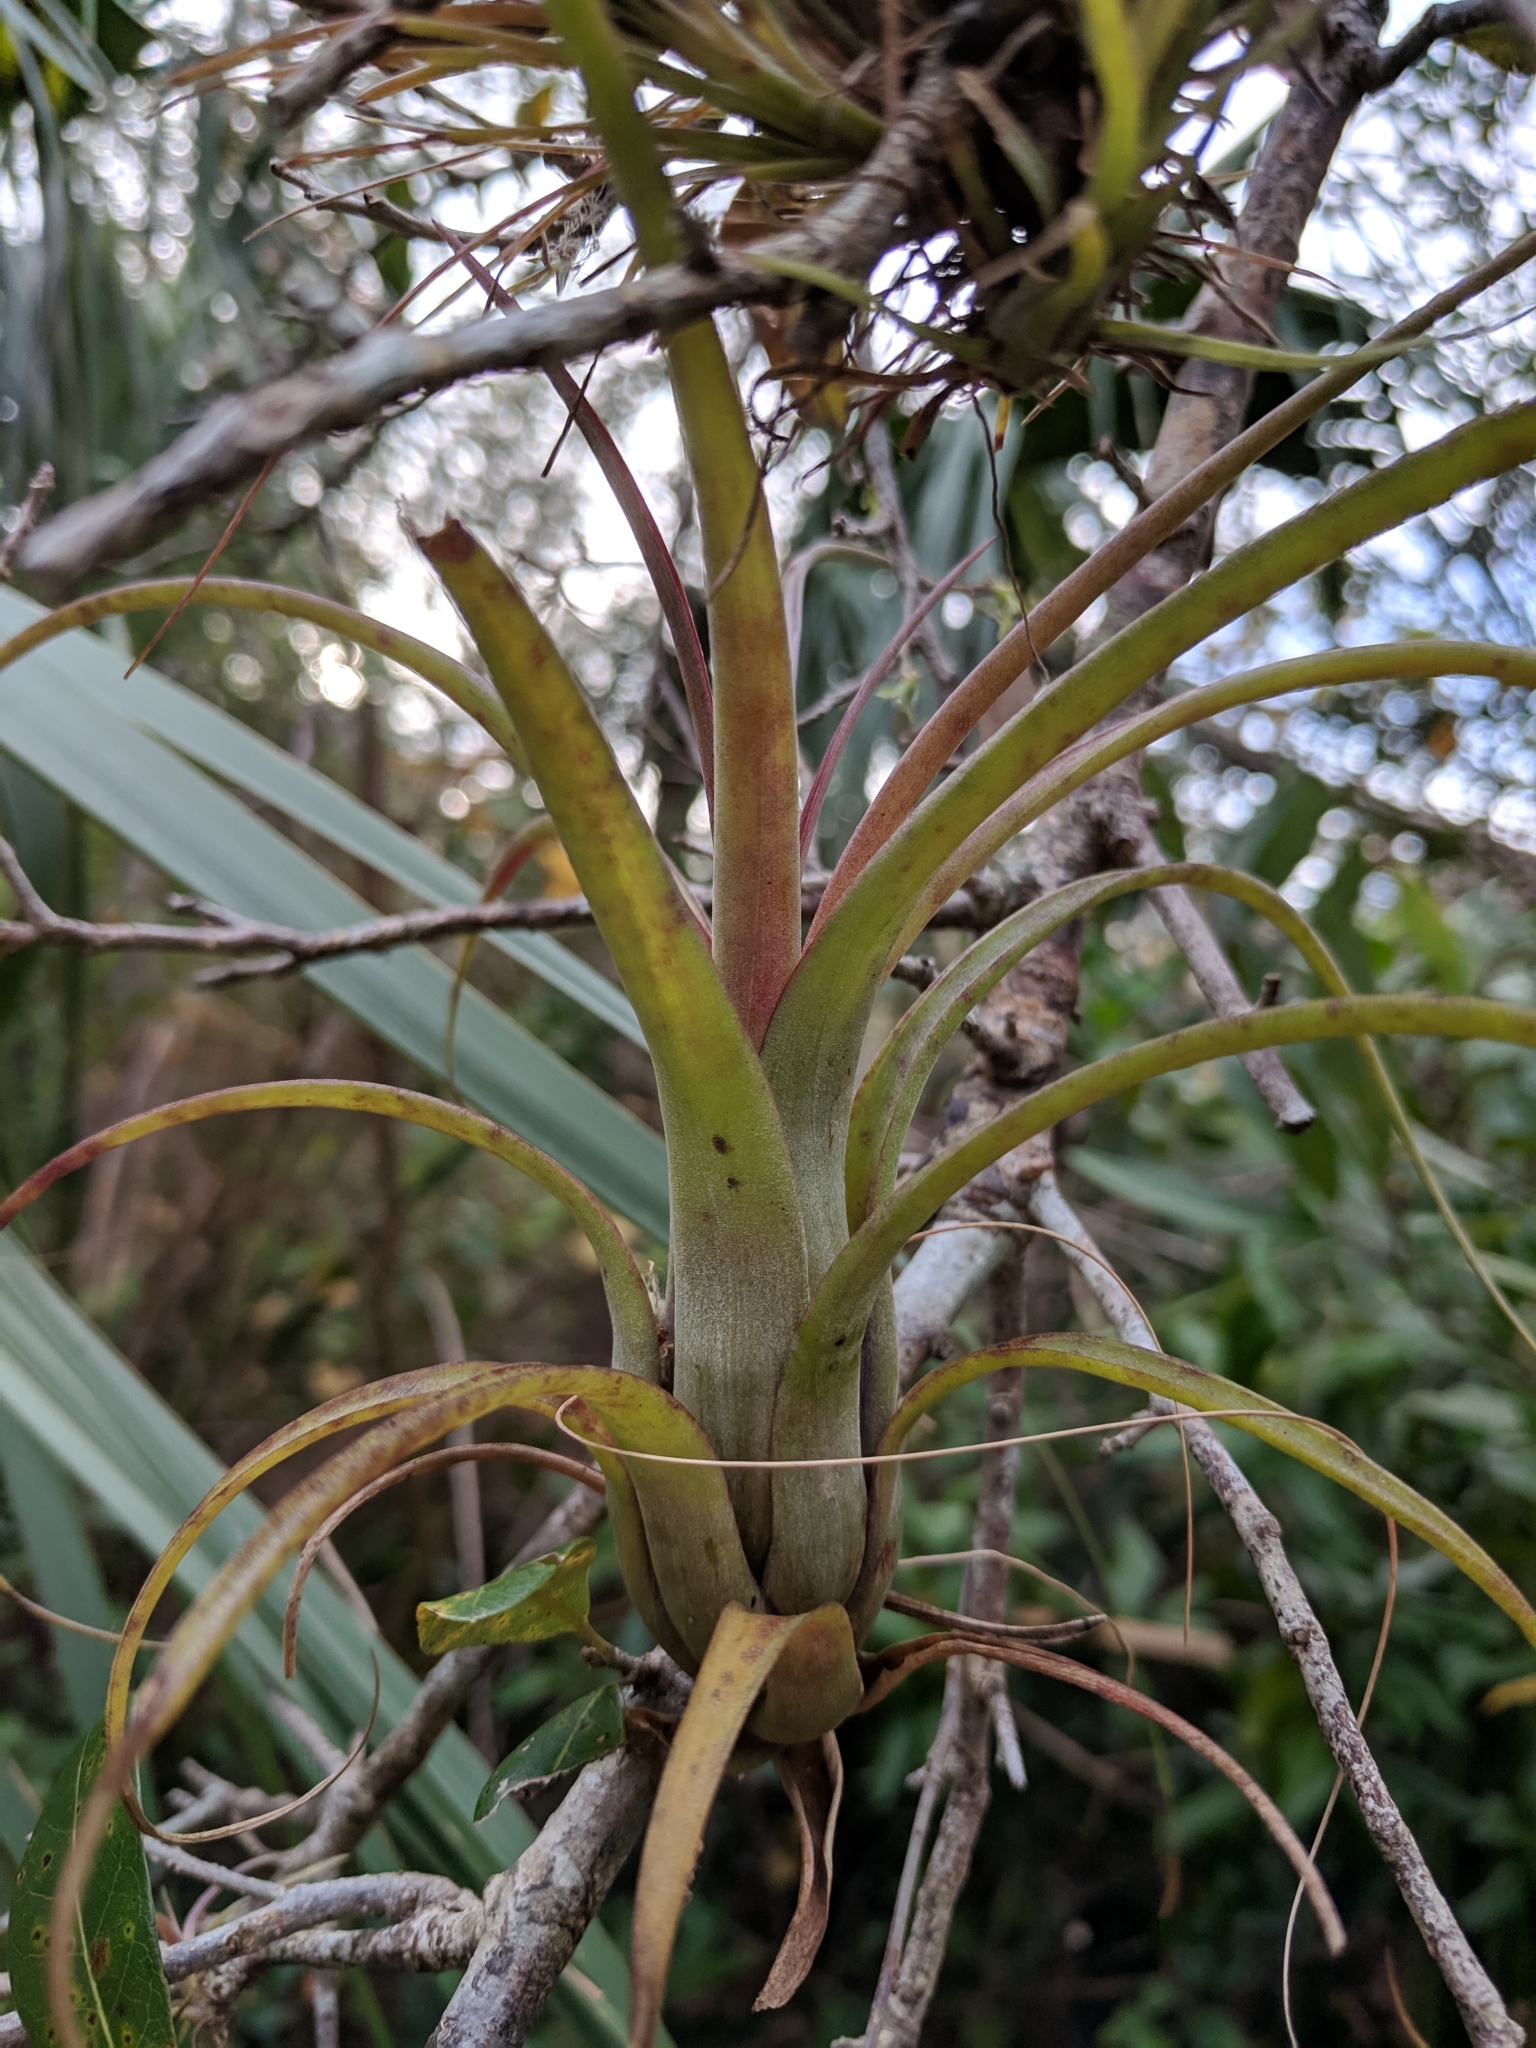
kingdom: Plantae
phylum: Tracheophyta
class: Liliopsida
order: Poales
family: Bromeliaceae
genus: Tillandsia
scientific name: Tillandsia balbisiana
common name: Northern needleleaf
